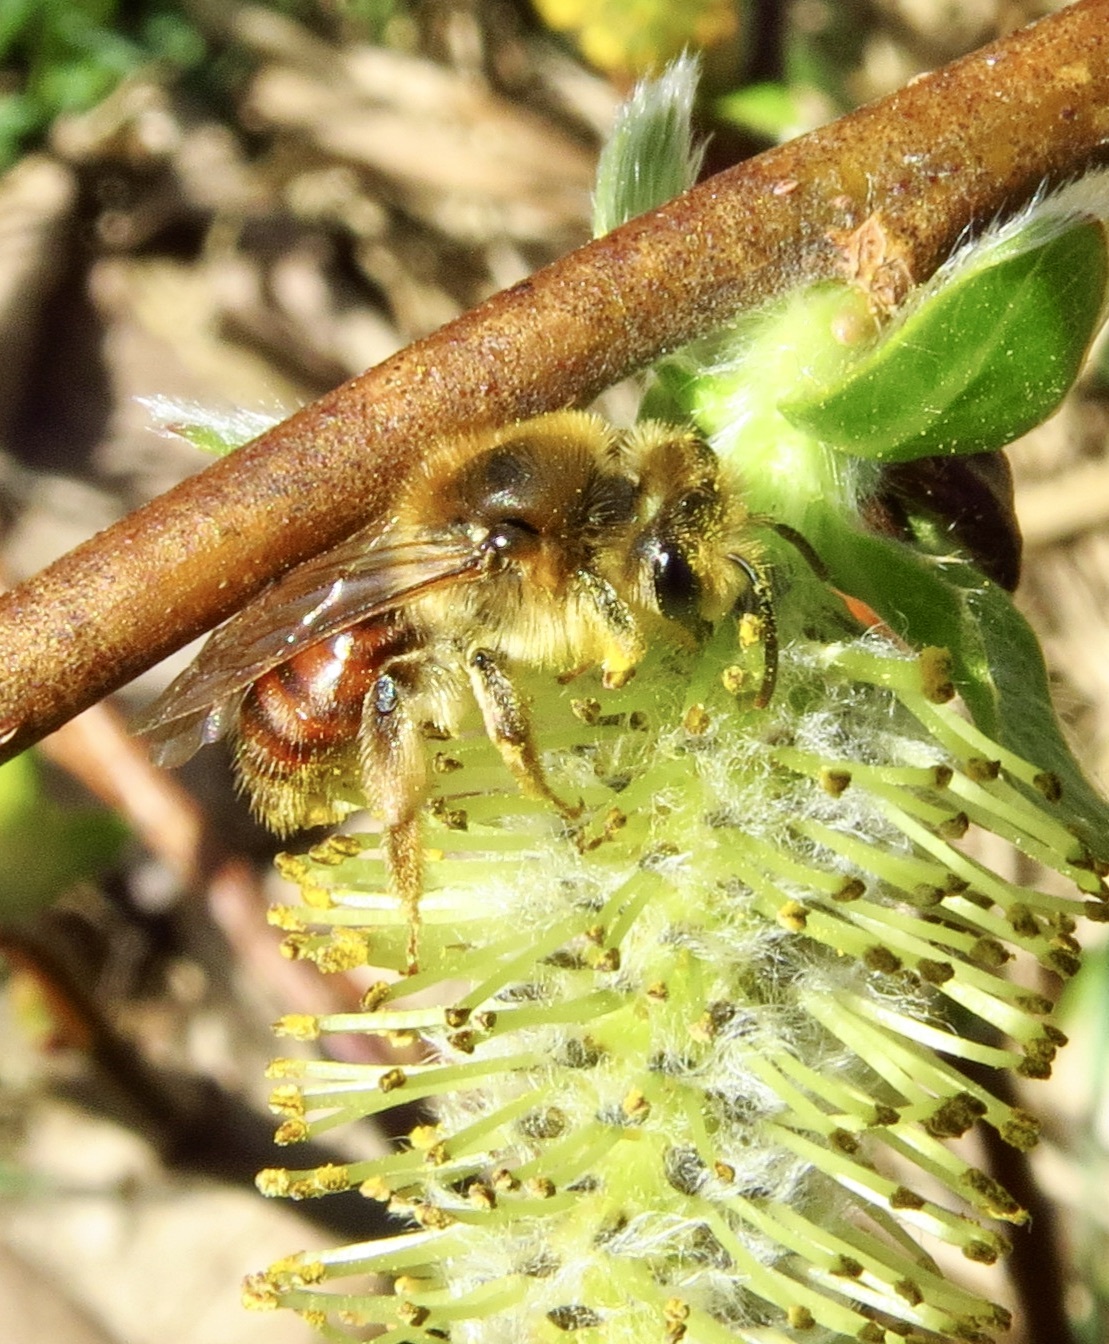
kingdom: Animalia
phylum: Arthropoda
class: Insecta
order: Hymenoptera
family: Andrenidae
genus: Andrena
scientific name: Andrena erythrogaster
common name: Red-tailed mining bee
